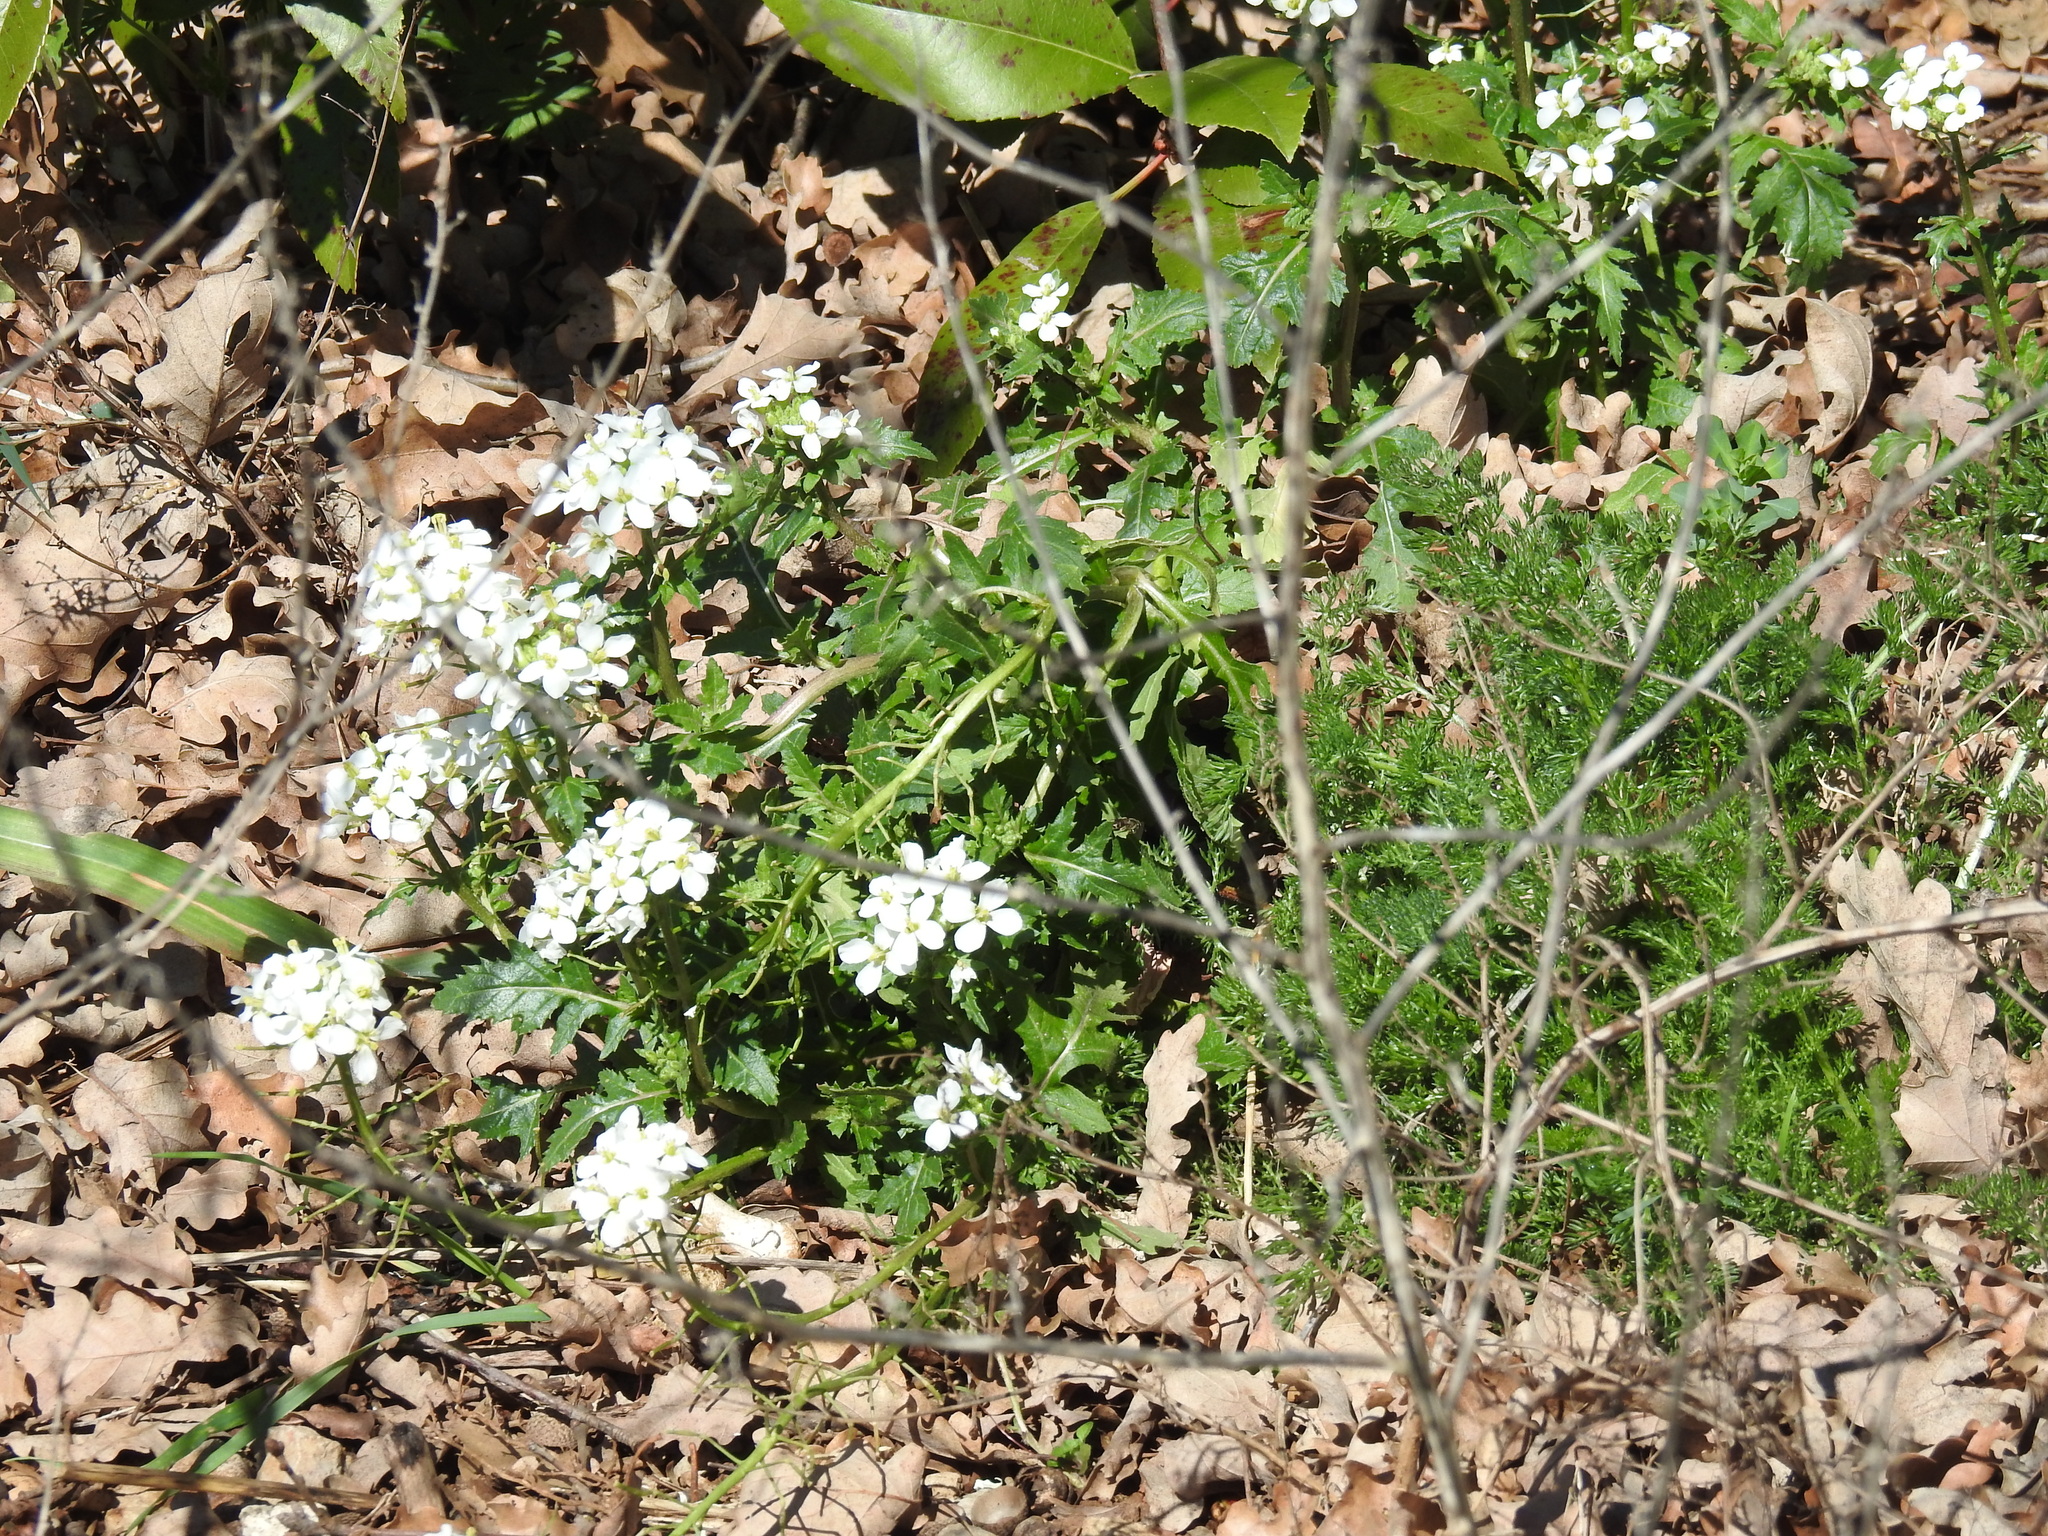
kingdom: Plantae
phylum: Tracheophyta
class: Magnoliopsida
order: Brassicales
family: Brassicaceae
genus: Diplotaxis
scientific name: Diplotaxis erucoides
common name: White rocket
